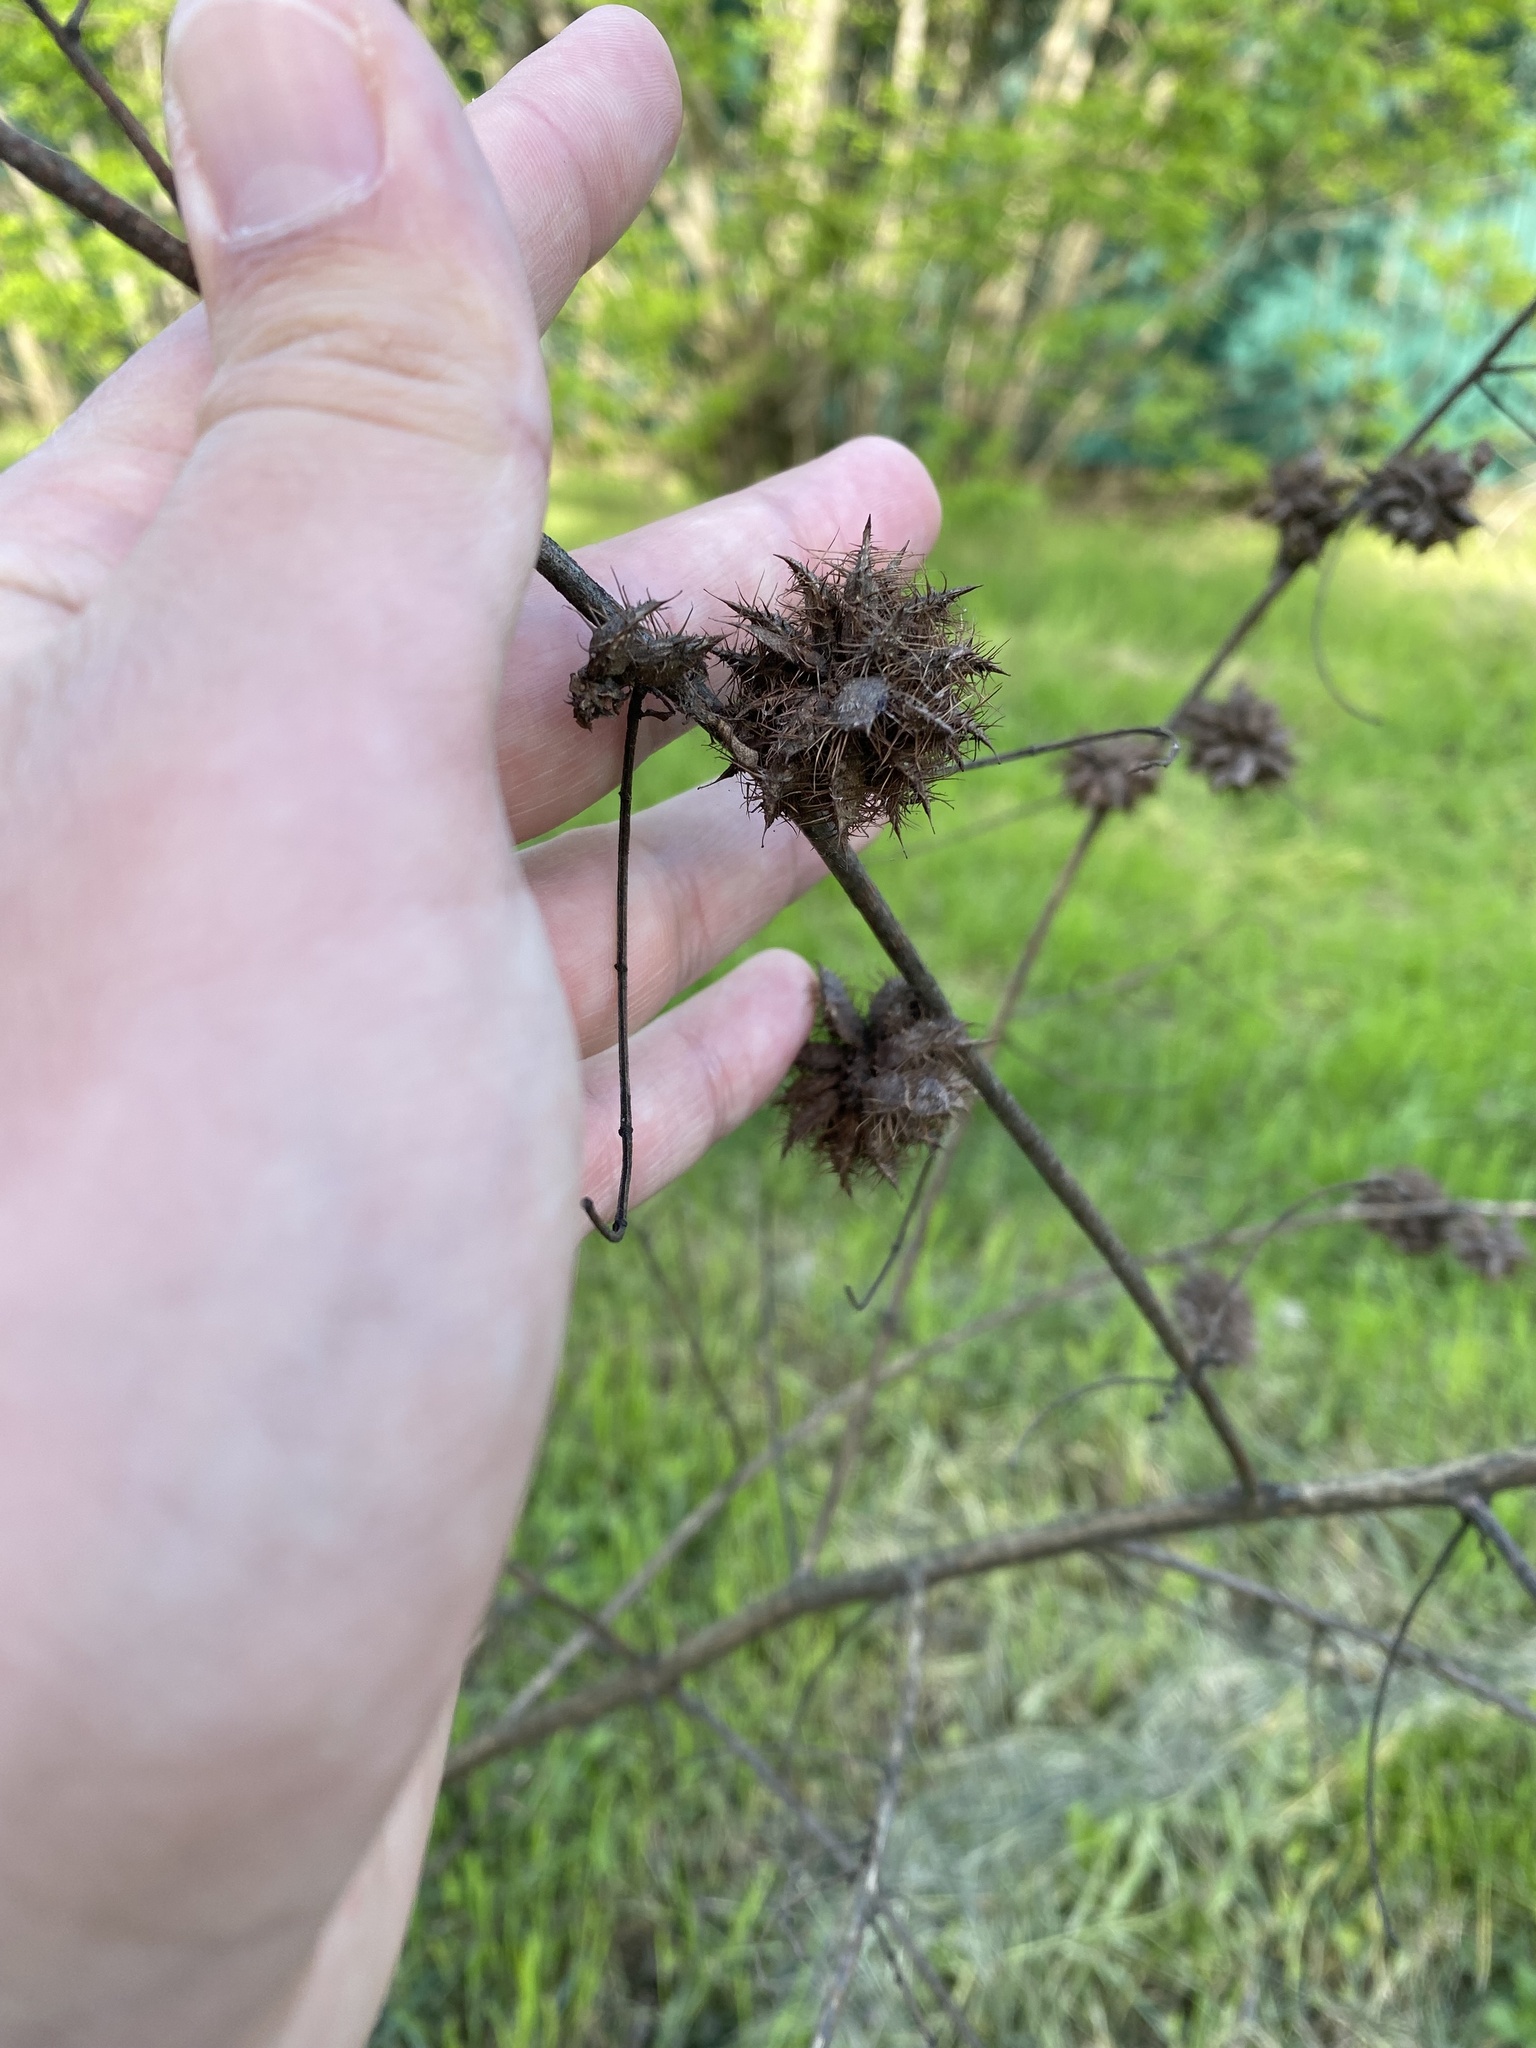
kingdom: Plantae
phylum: Tracheophyta
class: Magnoliopsida
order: Fabales
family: Fabaceae
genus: Glycyrrhiza
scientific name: Glycyrrhiza echinata
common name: German liquorice
